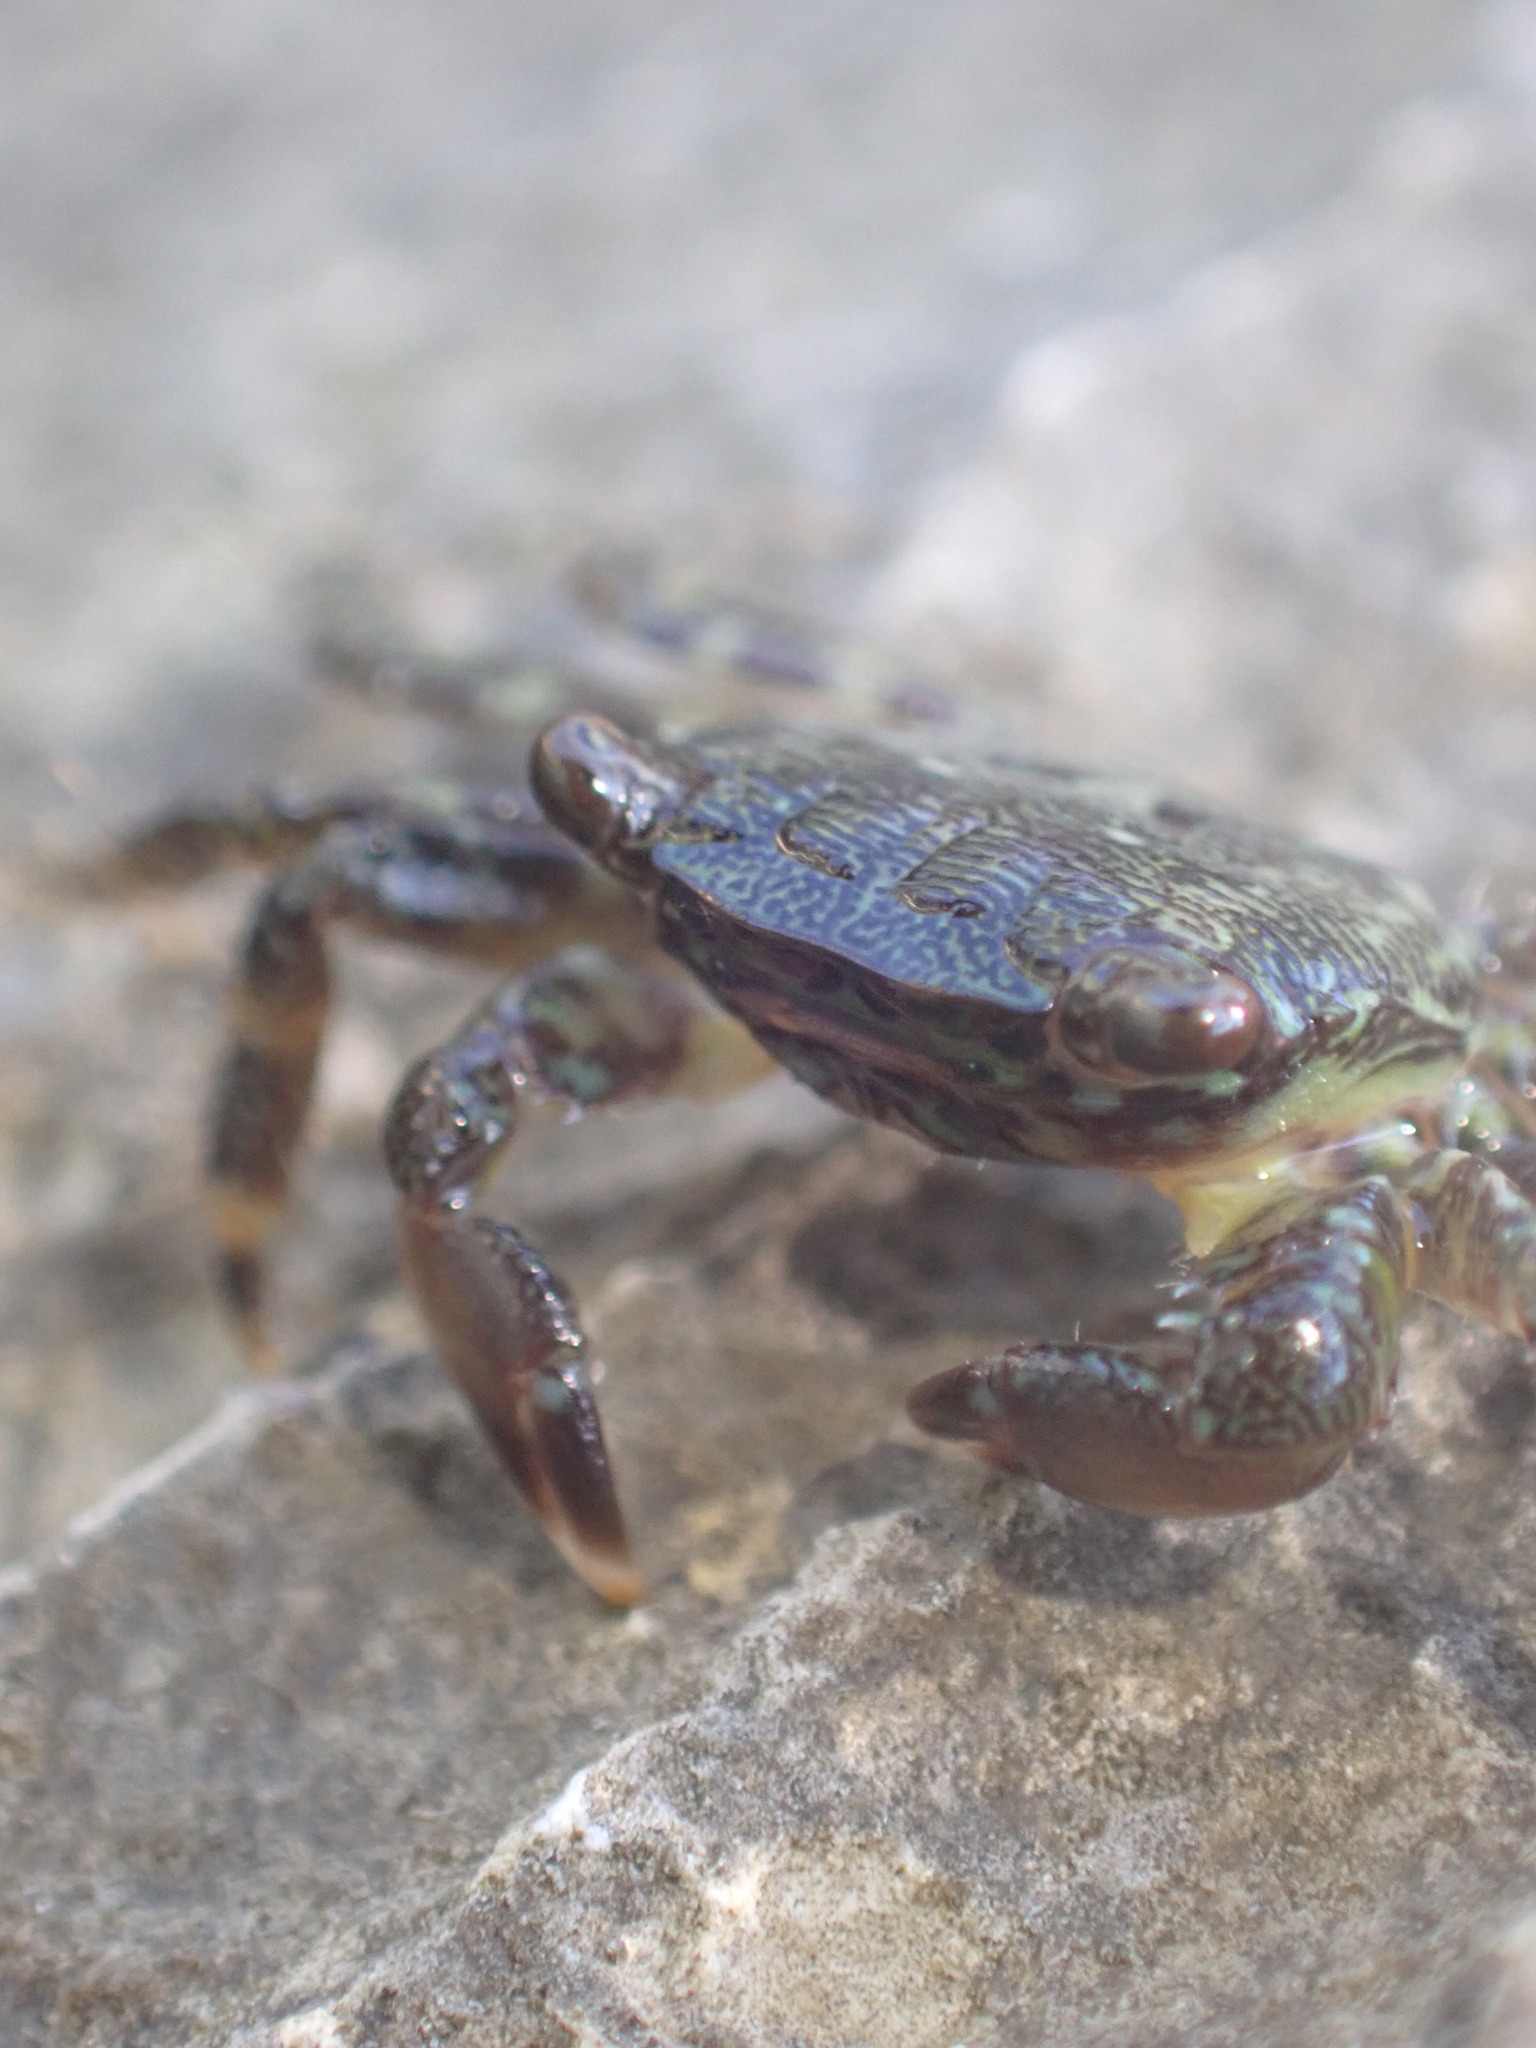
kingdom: Animalia
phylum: Arthropoda
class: Malacostraca
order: Decapoda
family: Grapsidae
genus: Pachygrapsus
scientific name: Pachygrapsus marmoratus
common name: Marbled rock crab
